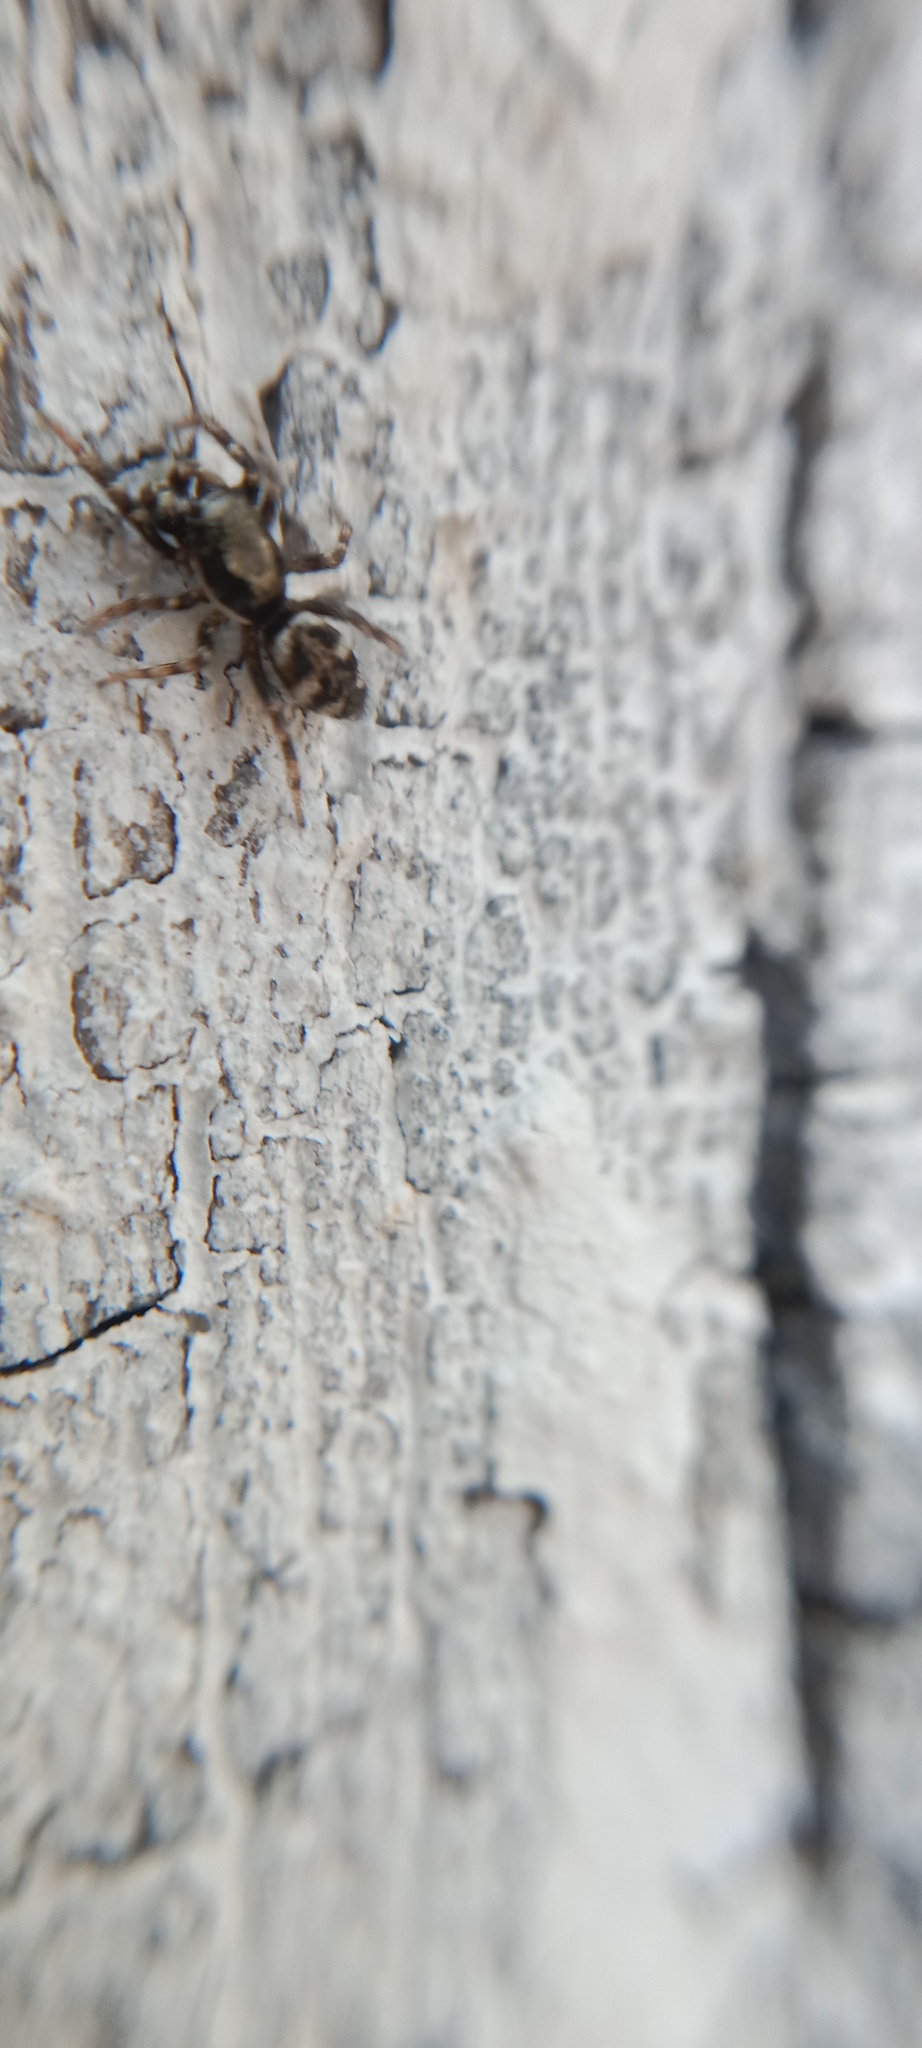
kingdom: Animalia
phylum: Arthropoda
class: Arachnida
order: Araneae
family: Salticidae
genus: Salticus
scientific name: Salticus scenicus
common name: Zebra jumper
